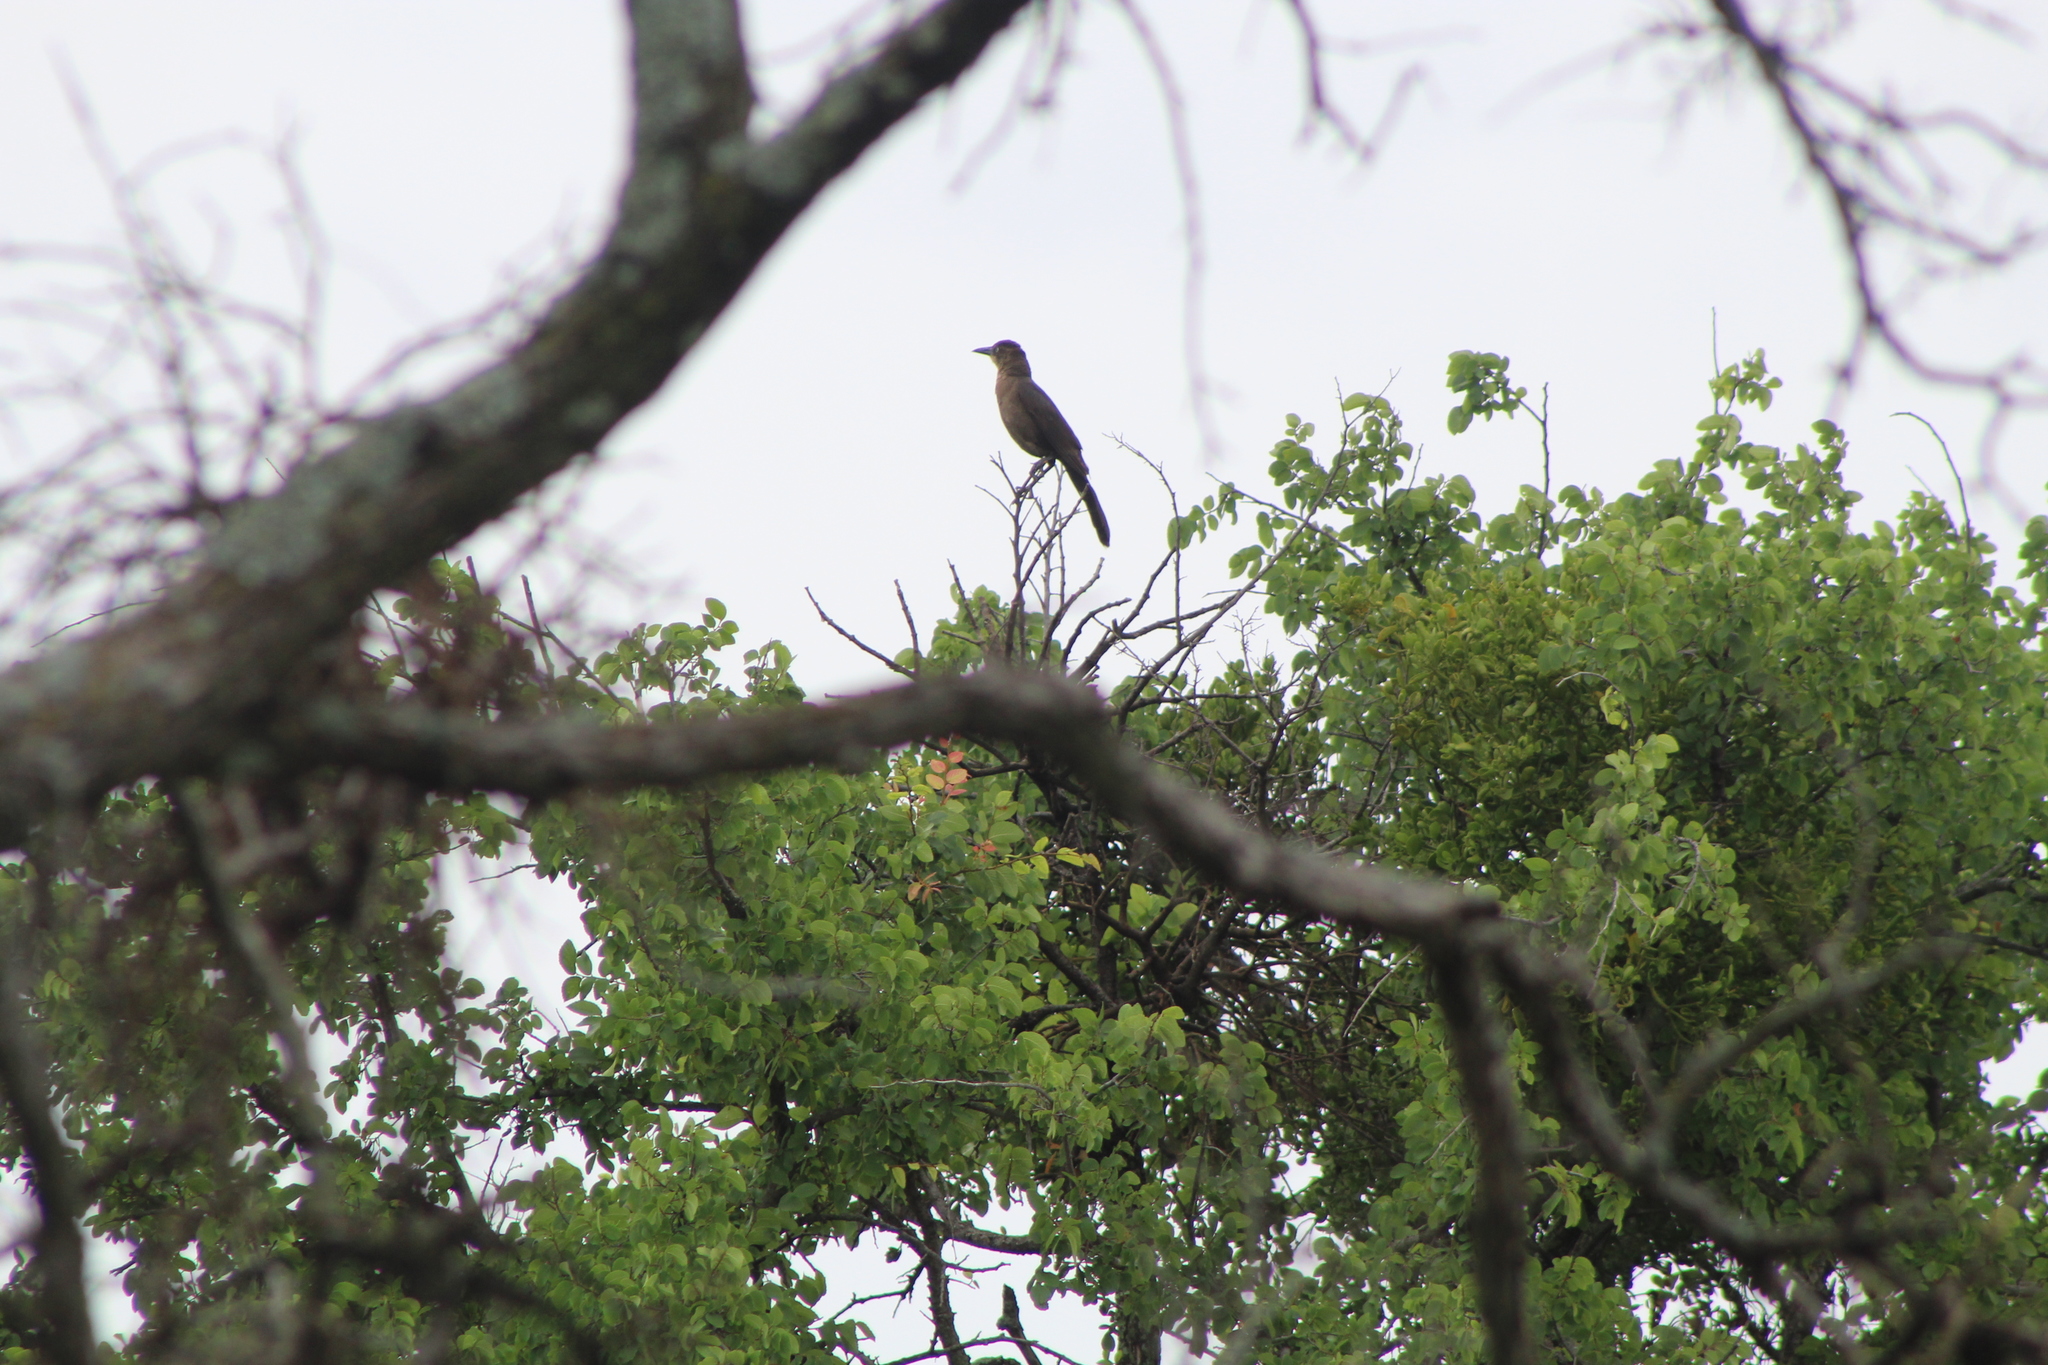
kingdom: Animalia
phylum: Chordata
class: Aves
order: Passeriformes
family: Icteridae
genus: Quiscalus
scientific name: Quiscalus mexicanus
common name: Great-tailed grackle
